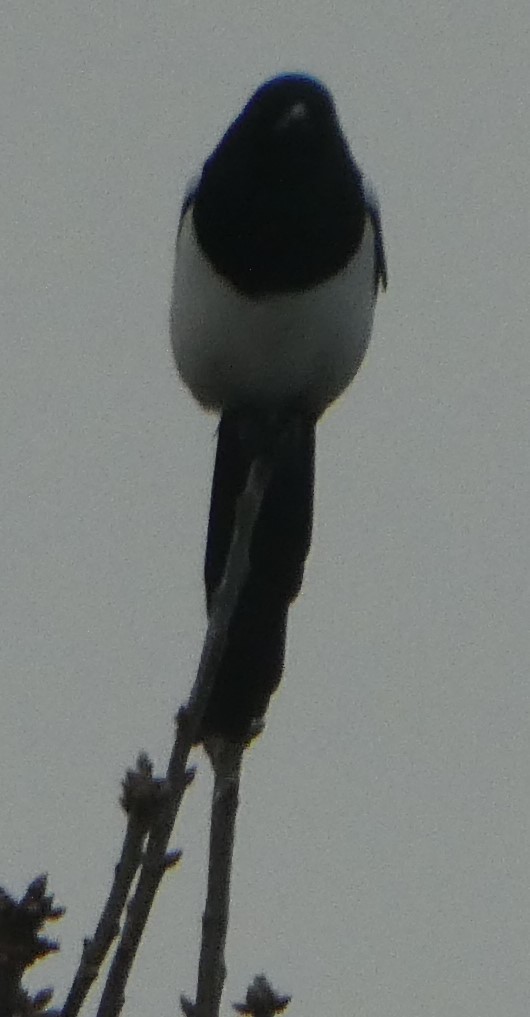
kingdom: Animalia
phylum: Chordata
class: Aves
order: Passeriformes
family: Corvidae
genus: Pica
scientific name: Pica pica
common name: Eurasian magpie
